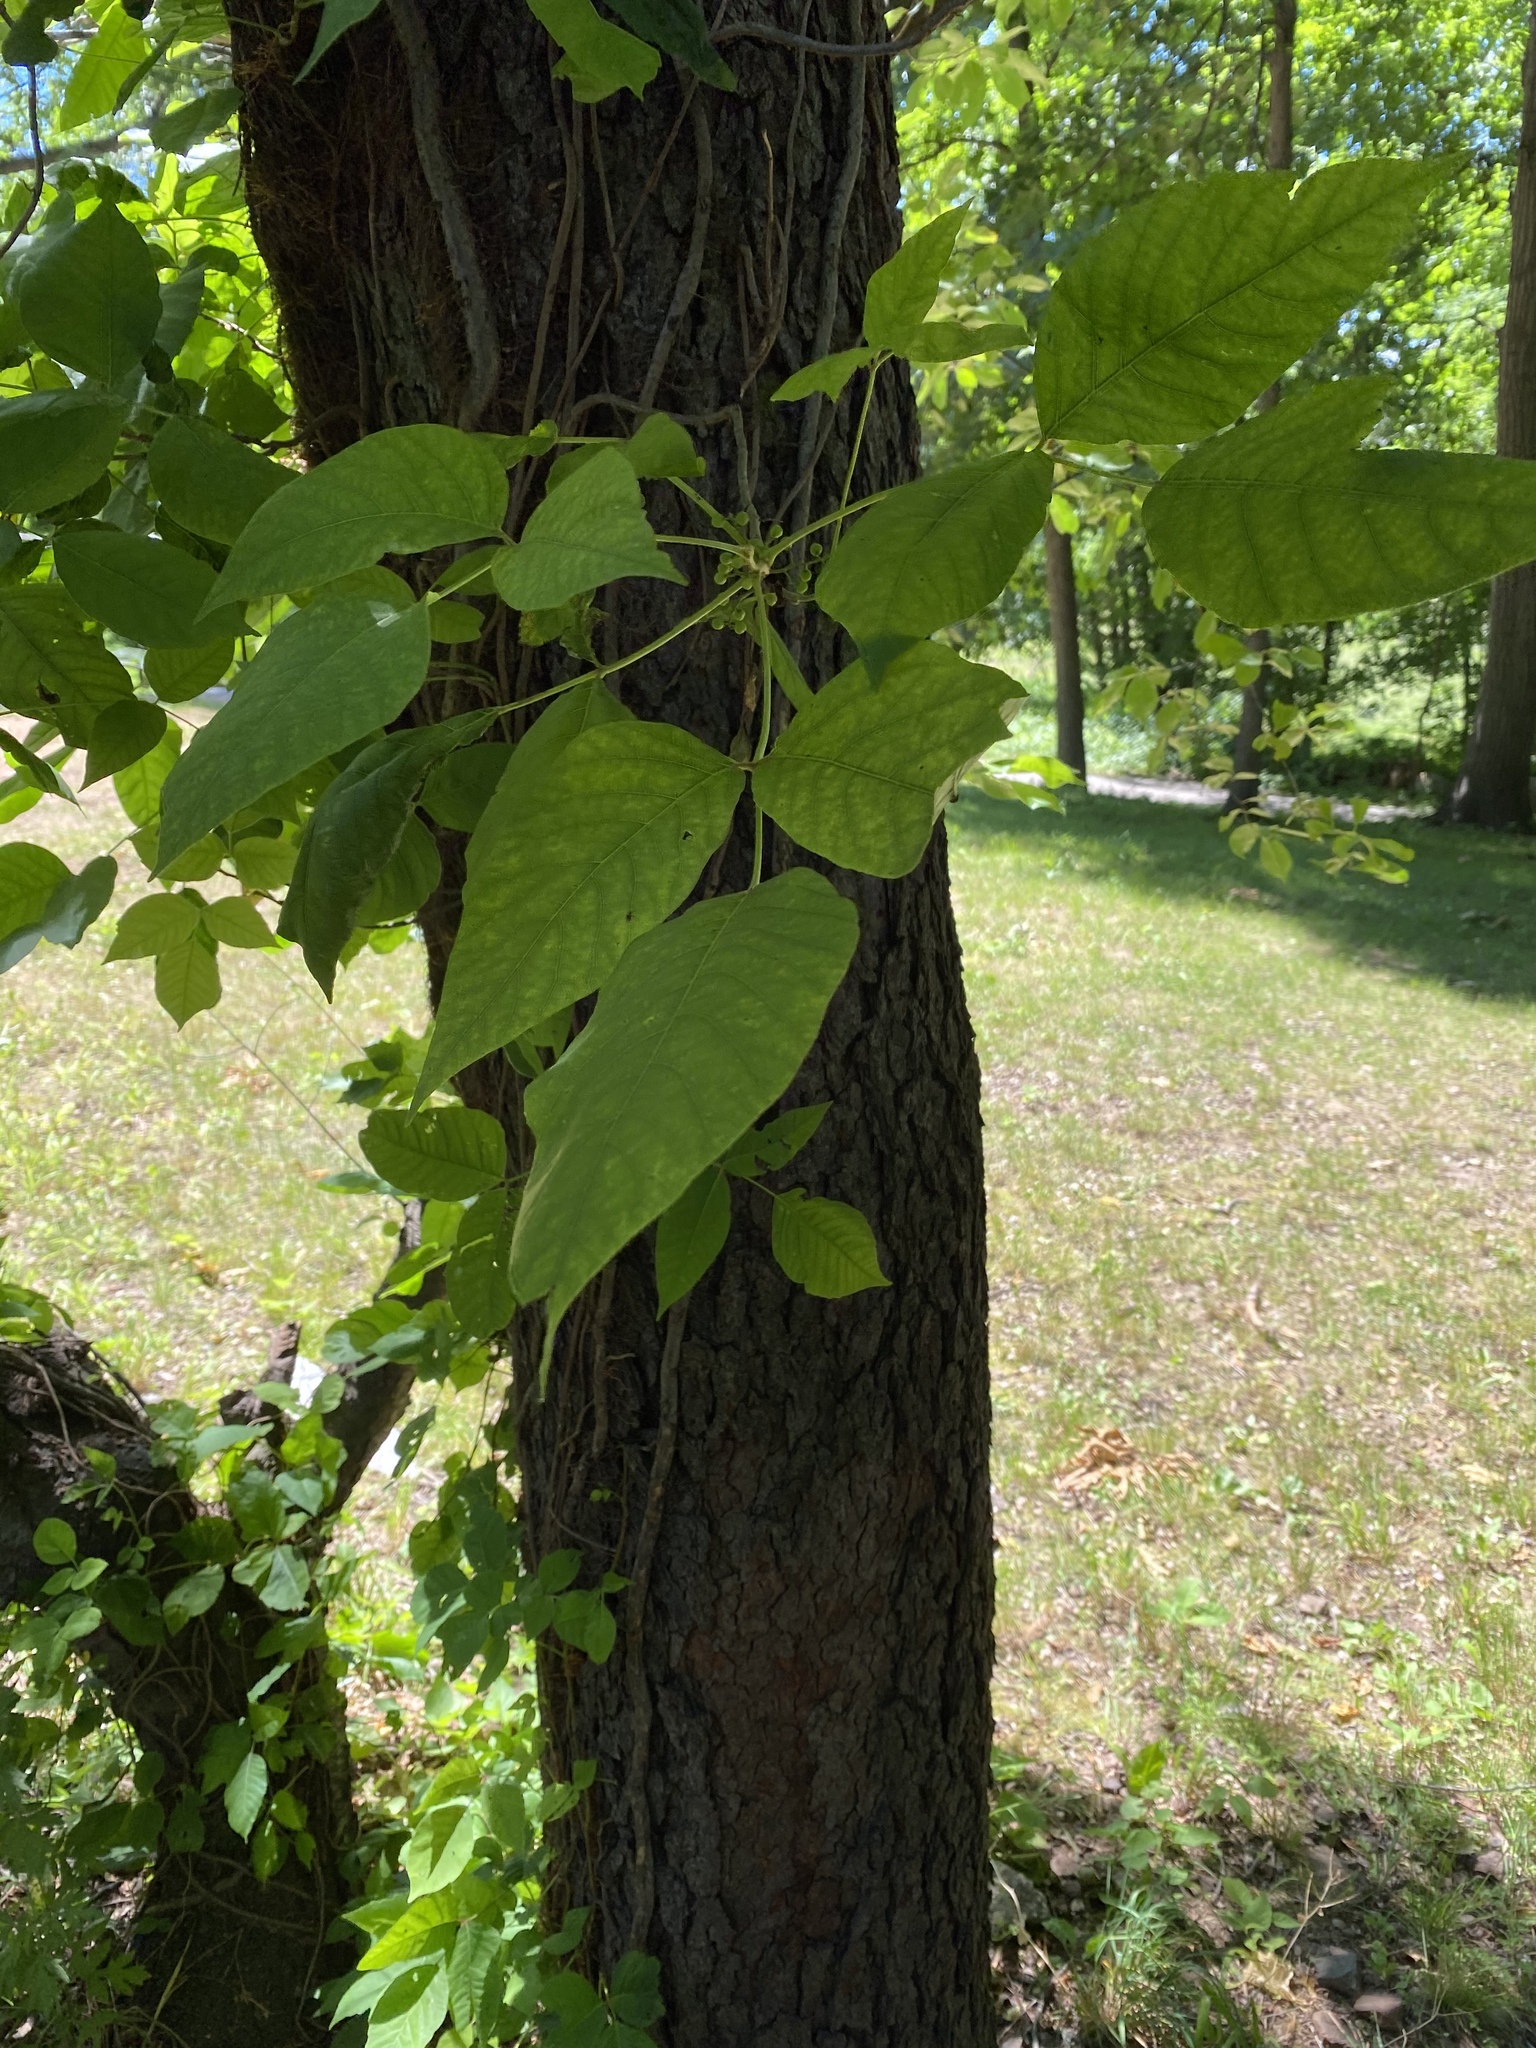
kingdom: Plantae
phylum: Tracheophyta
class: Magnoliopsida
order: Sapindales
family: Anacardiaceae
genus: Toxicodendron
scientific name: Toxicodendron radicans
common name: Poison ivy
